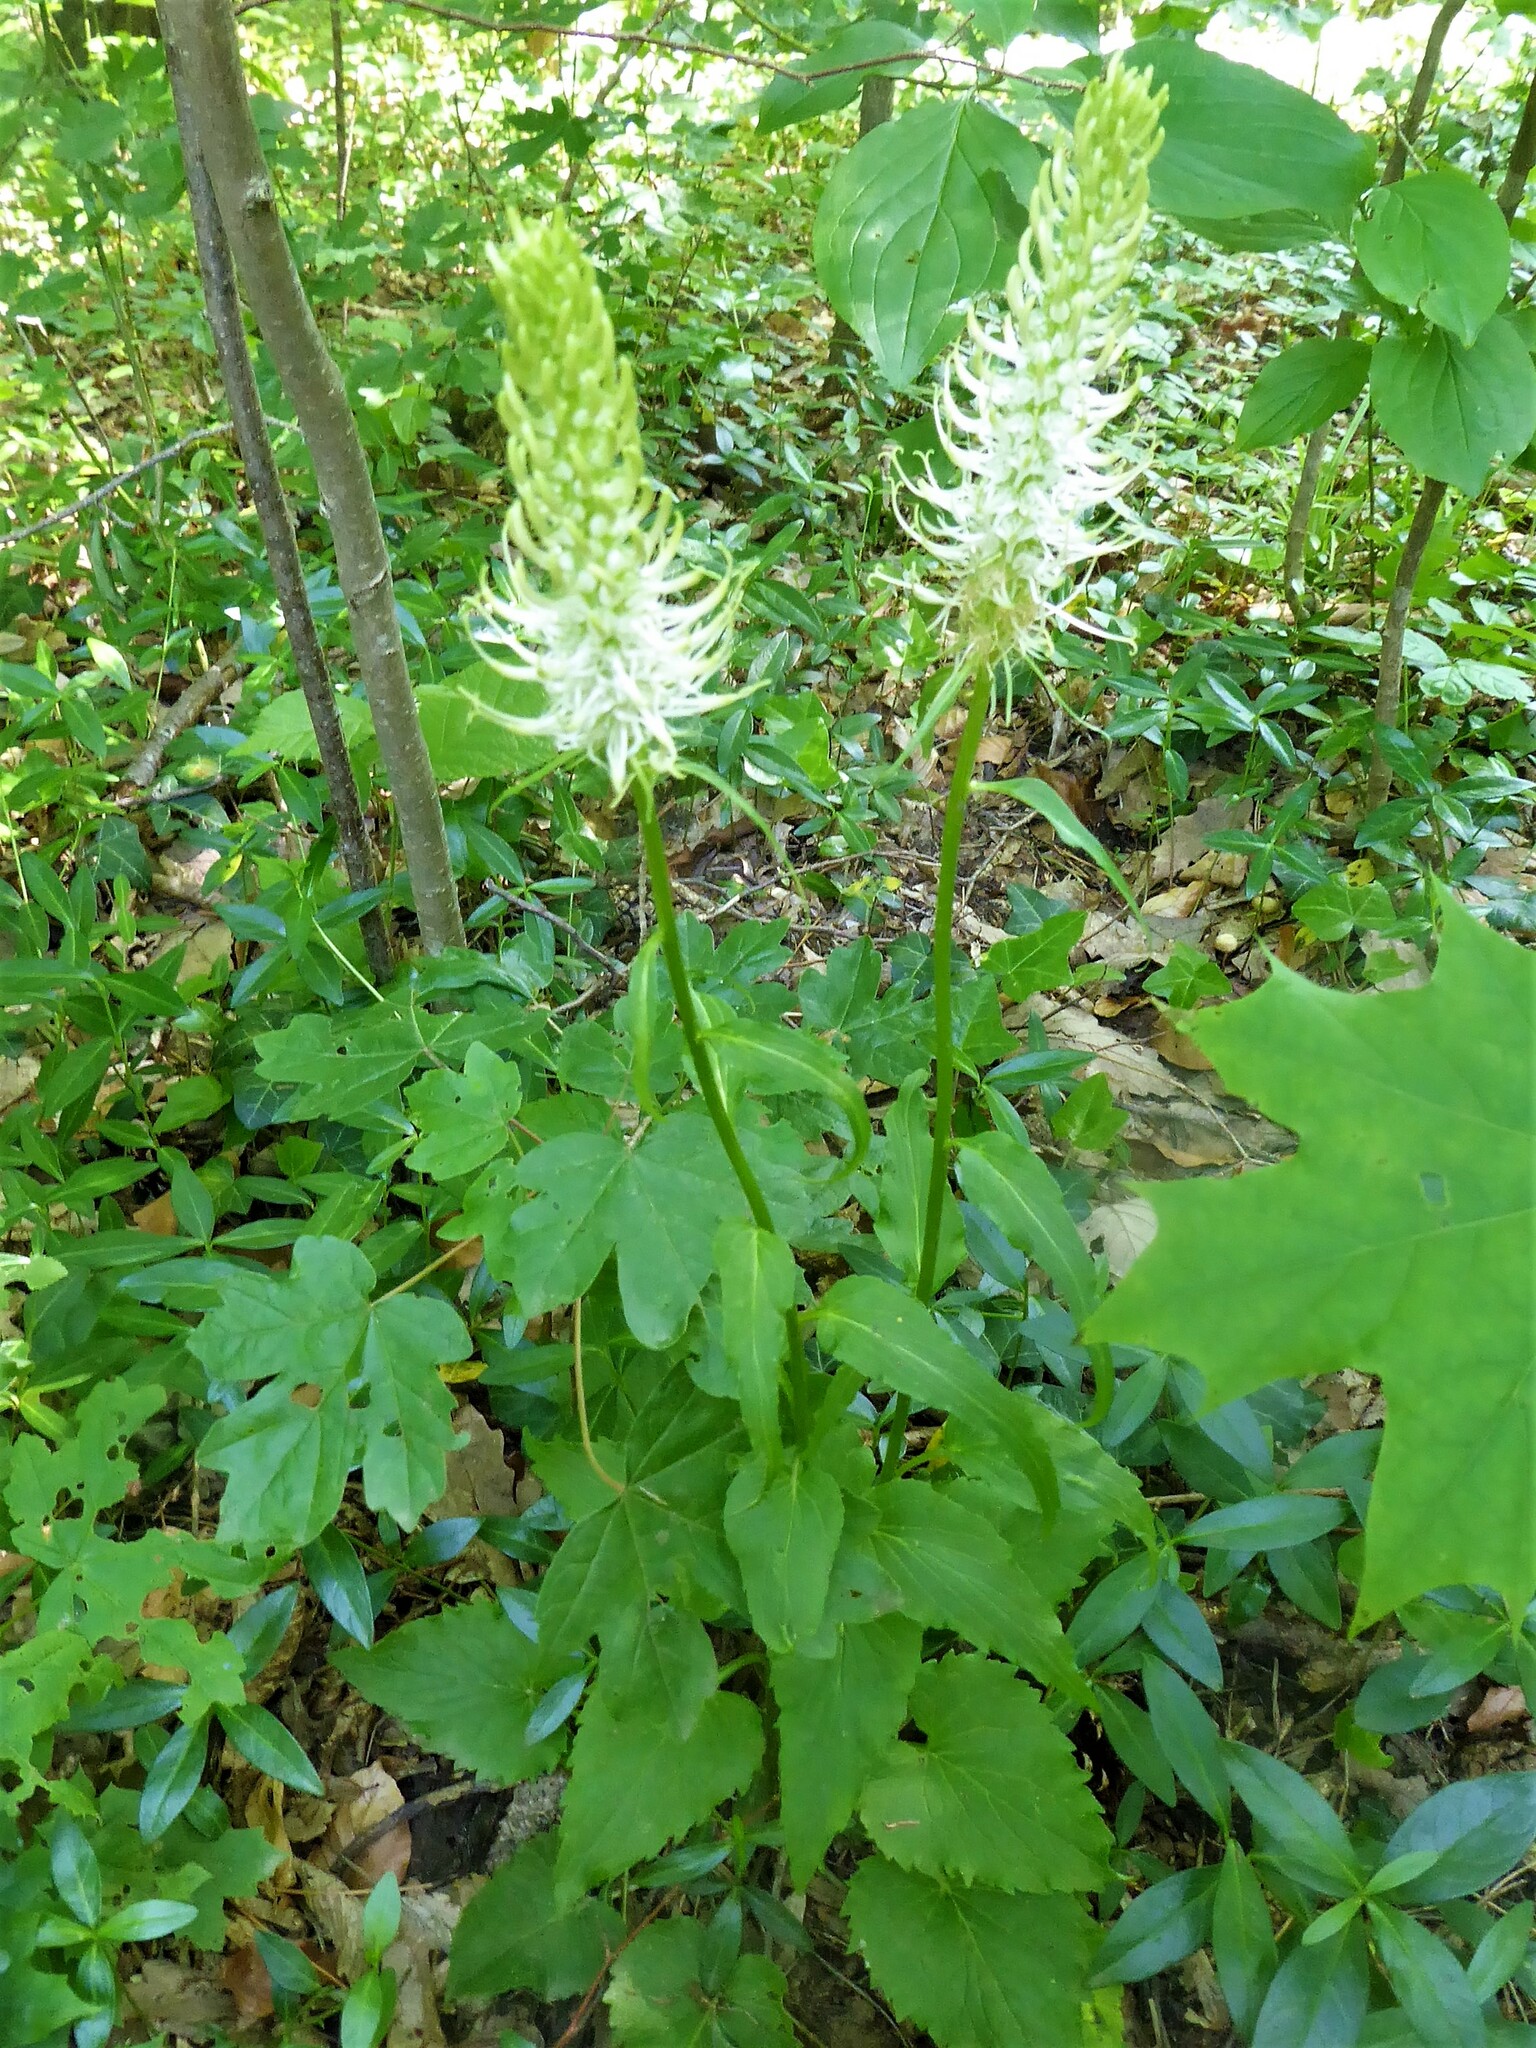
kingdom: Plantae
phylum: Tracheophyta
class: Magnoliopsida
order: Asterales
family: Campanulaceae
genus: Phyteuma
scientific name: Phyteuma spicatum
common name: Spiked rampion
